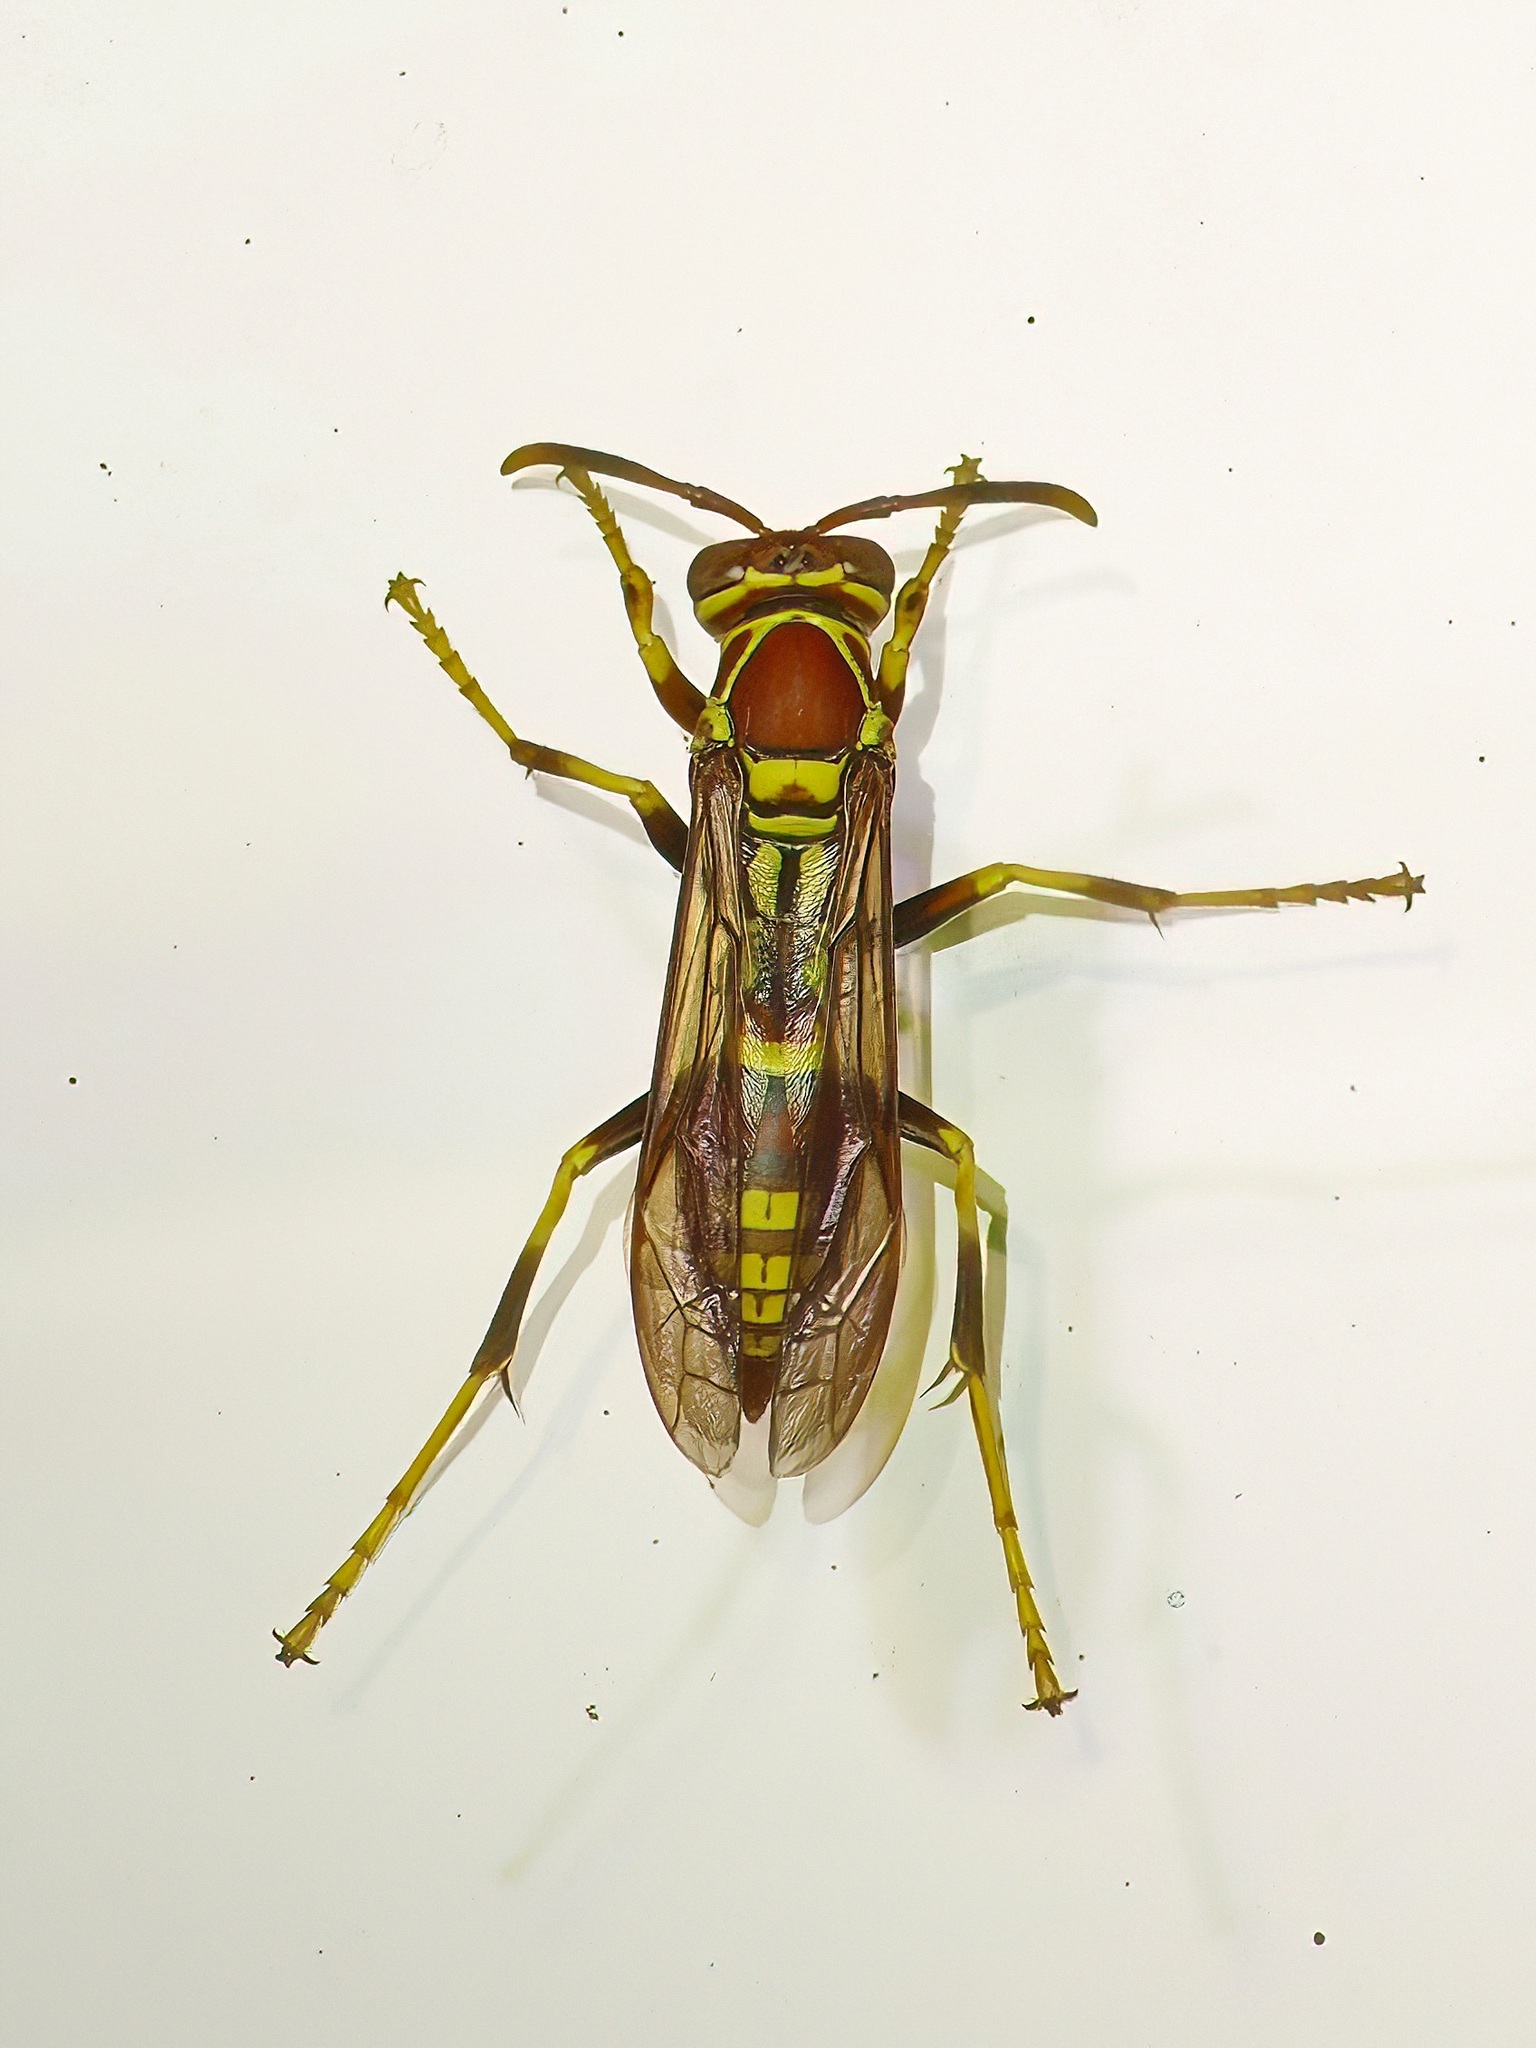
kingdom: Animalia
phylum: Arthropoda
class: Insecta
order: Hymenoptera
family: Eumenidae
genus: Polistes
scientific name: Polistes exclamans
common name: Paper wasp
